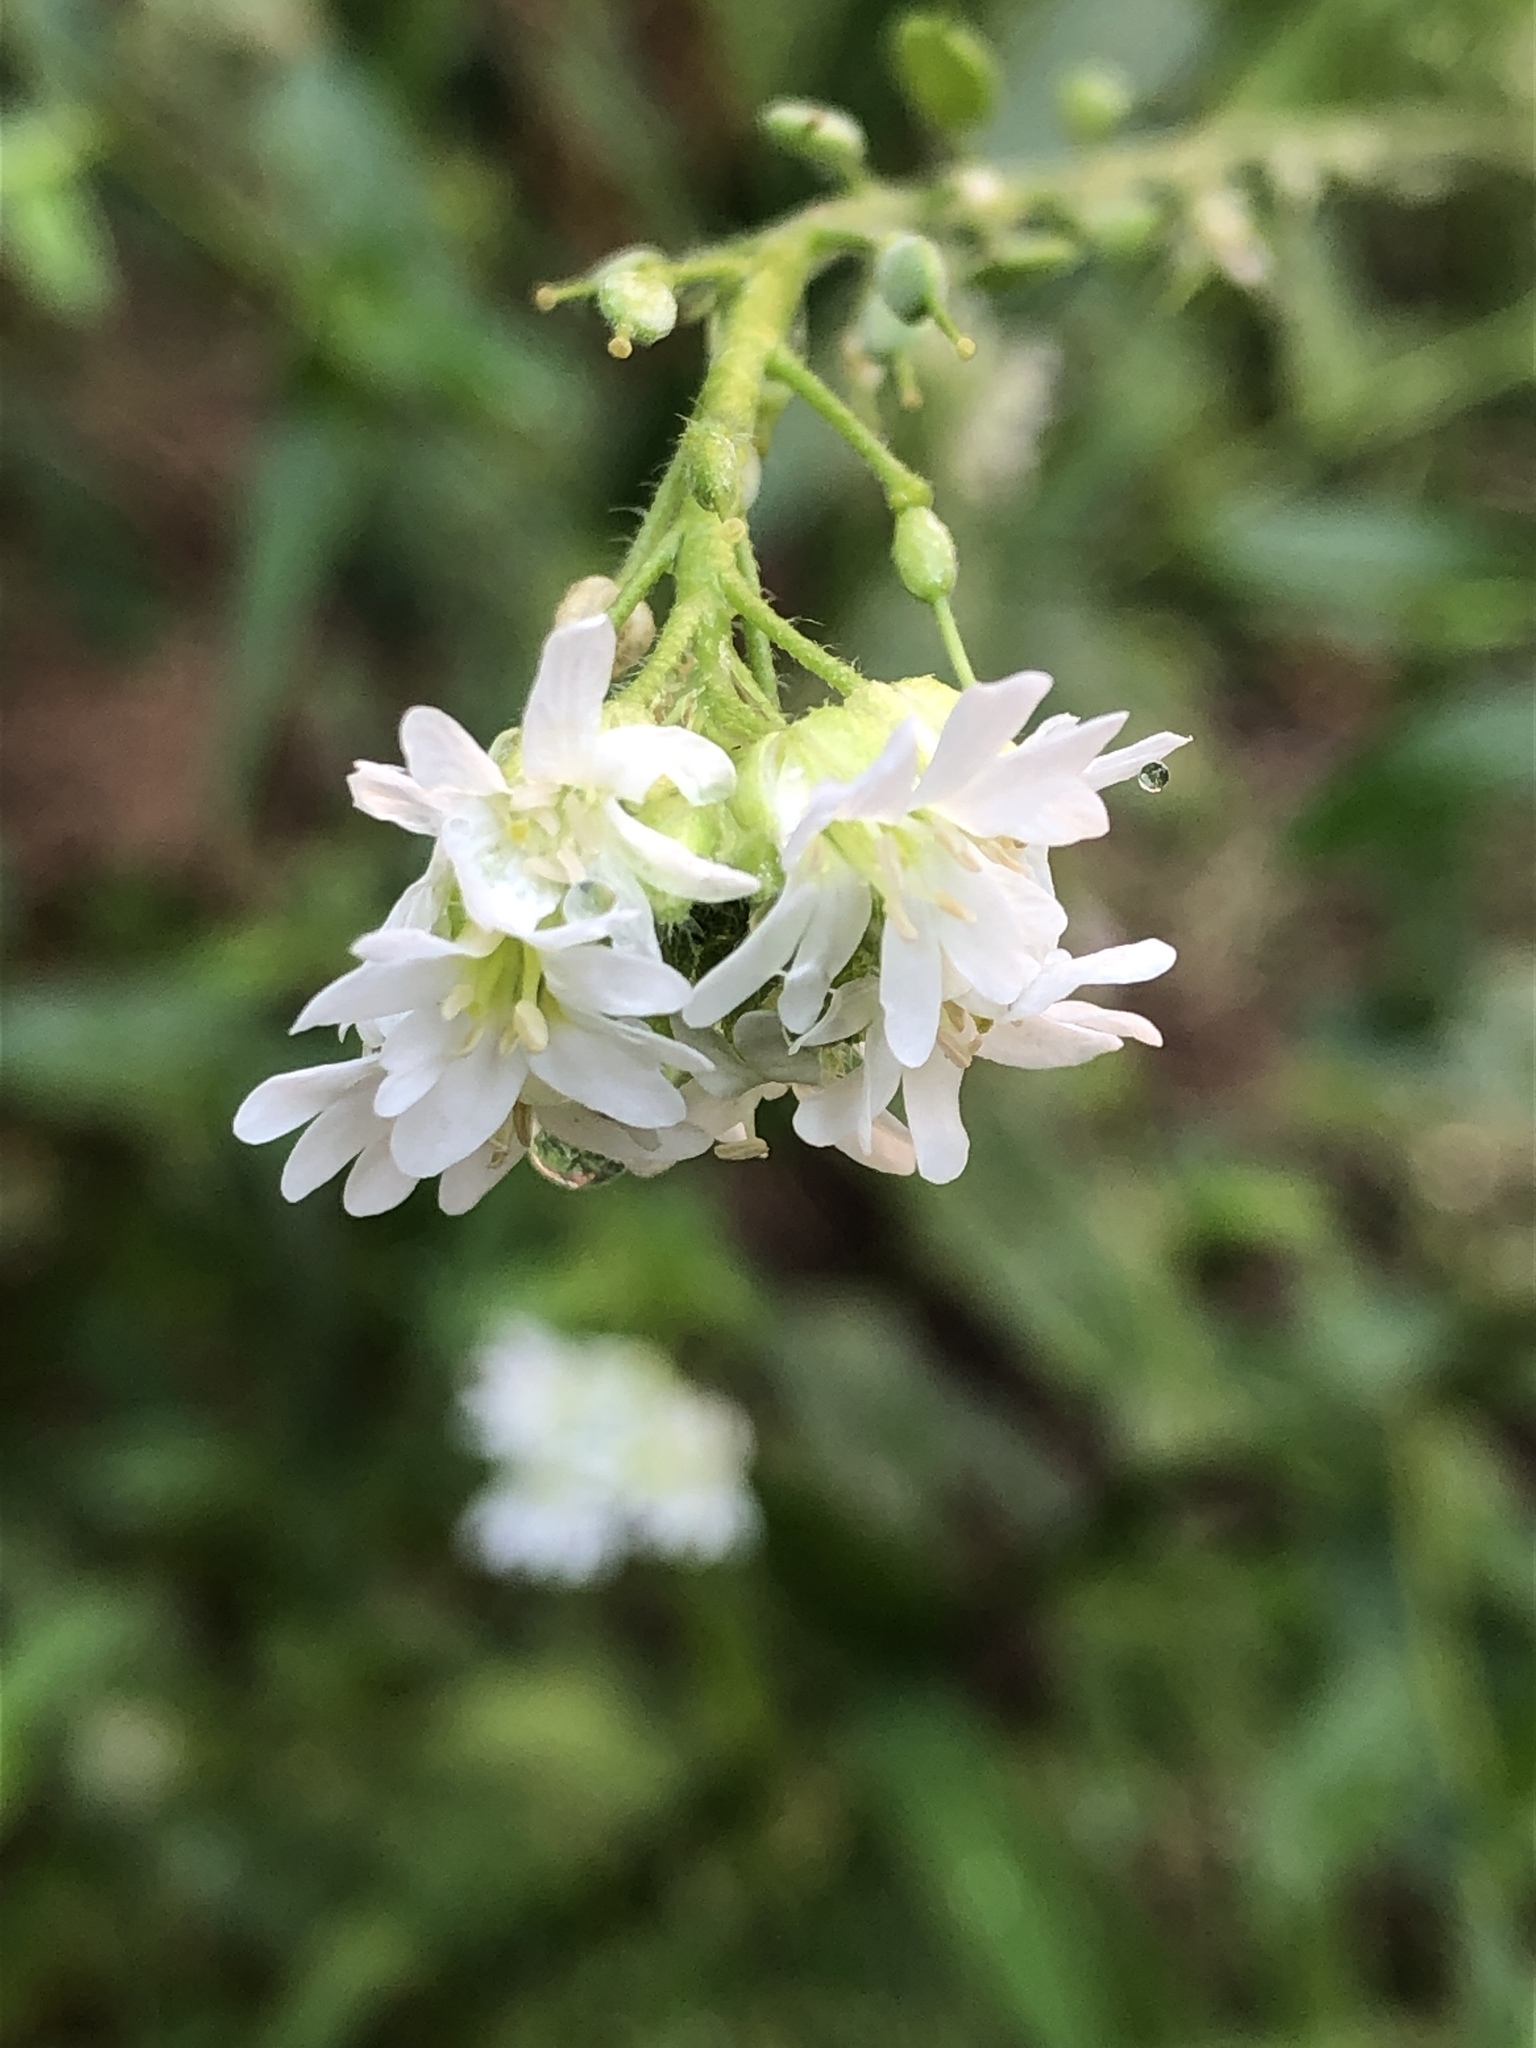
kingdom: Plantae
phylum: Tracheophyta
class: Magnoliopsida
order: Brassicales
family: Brassicaceae
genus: Berteroa
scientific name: Berteroa incana
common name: Hoary alison
